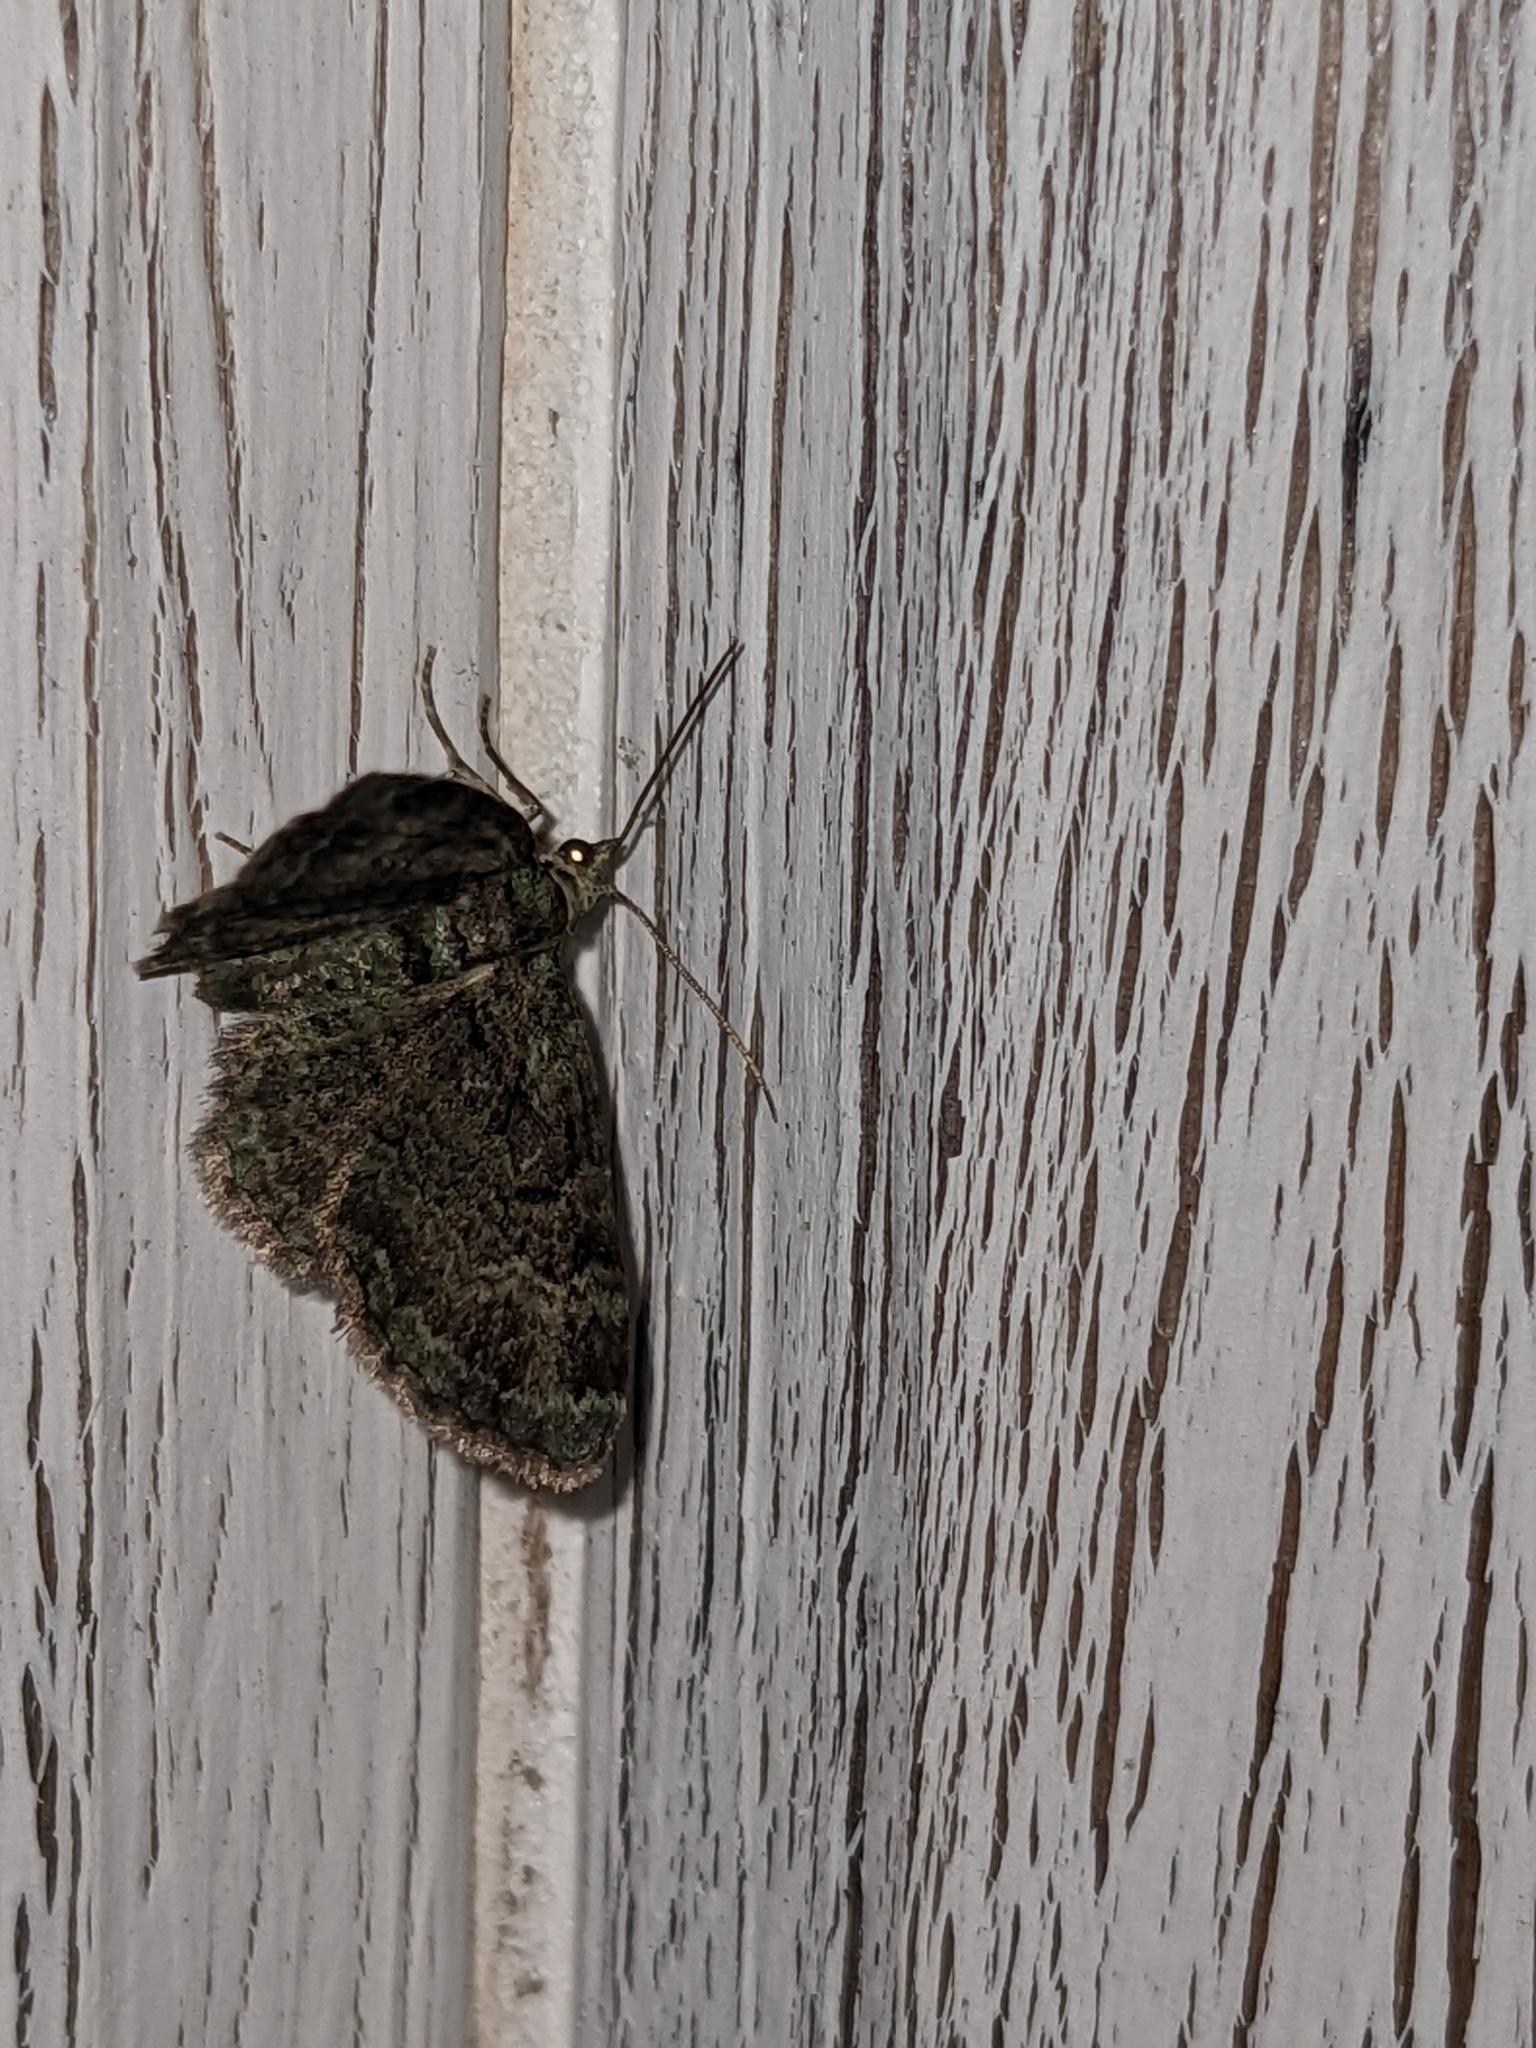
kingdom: Animalia
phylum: Arthropoda
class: Insecta
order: Lepidoptera
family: Geometridae
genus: Pasiphila
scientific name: Pasiphila rectangulata
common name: Green pug
